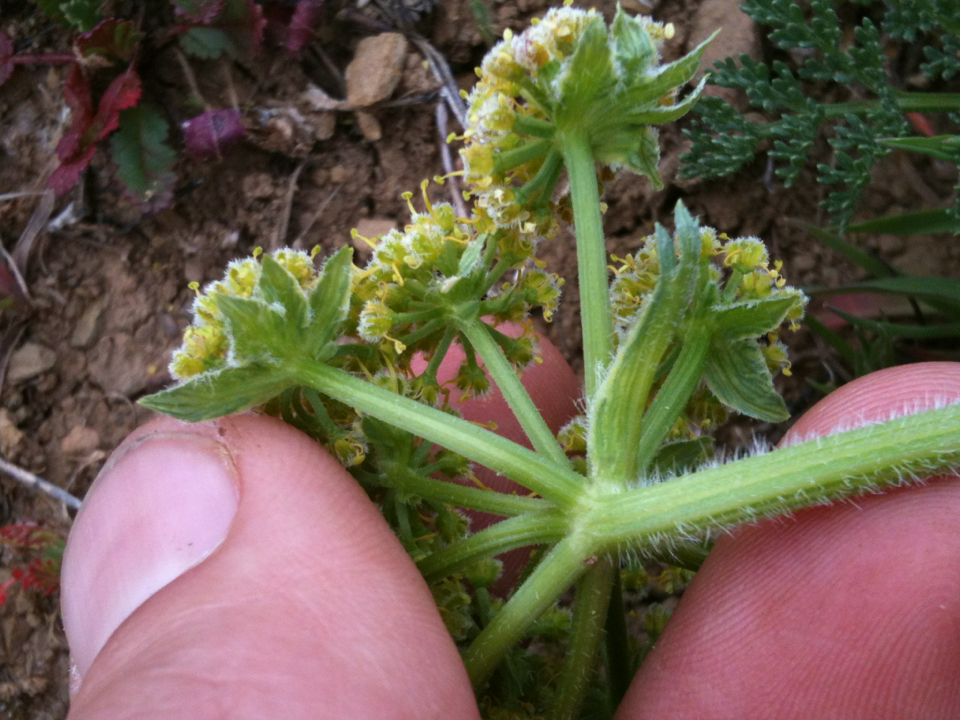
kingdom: Plantae
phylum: Tracheophyta
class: Magnoliopsida
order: Apiales
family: Apiaceae
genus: Lomatium
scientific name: Lomatium dasycarpum
